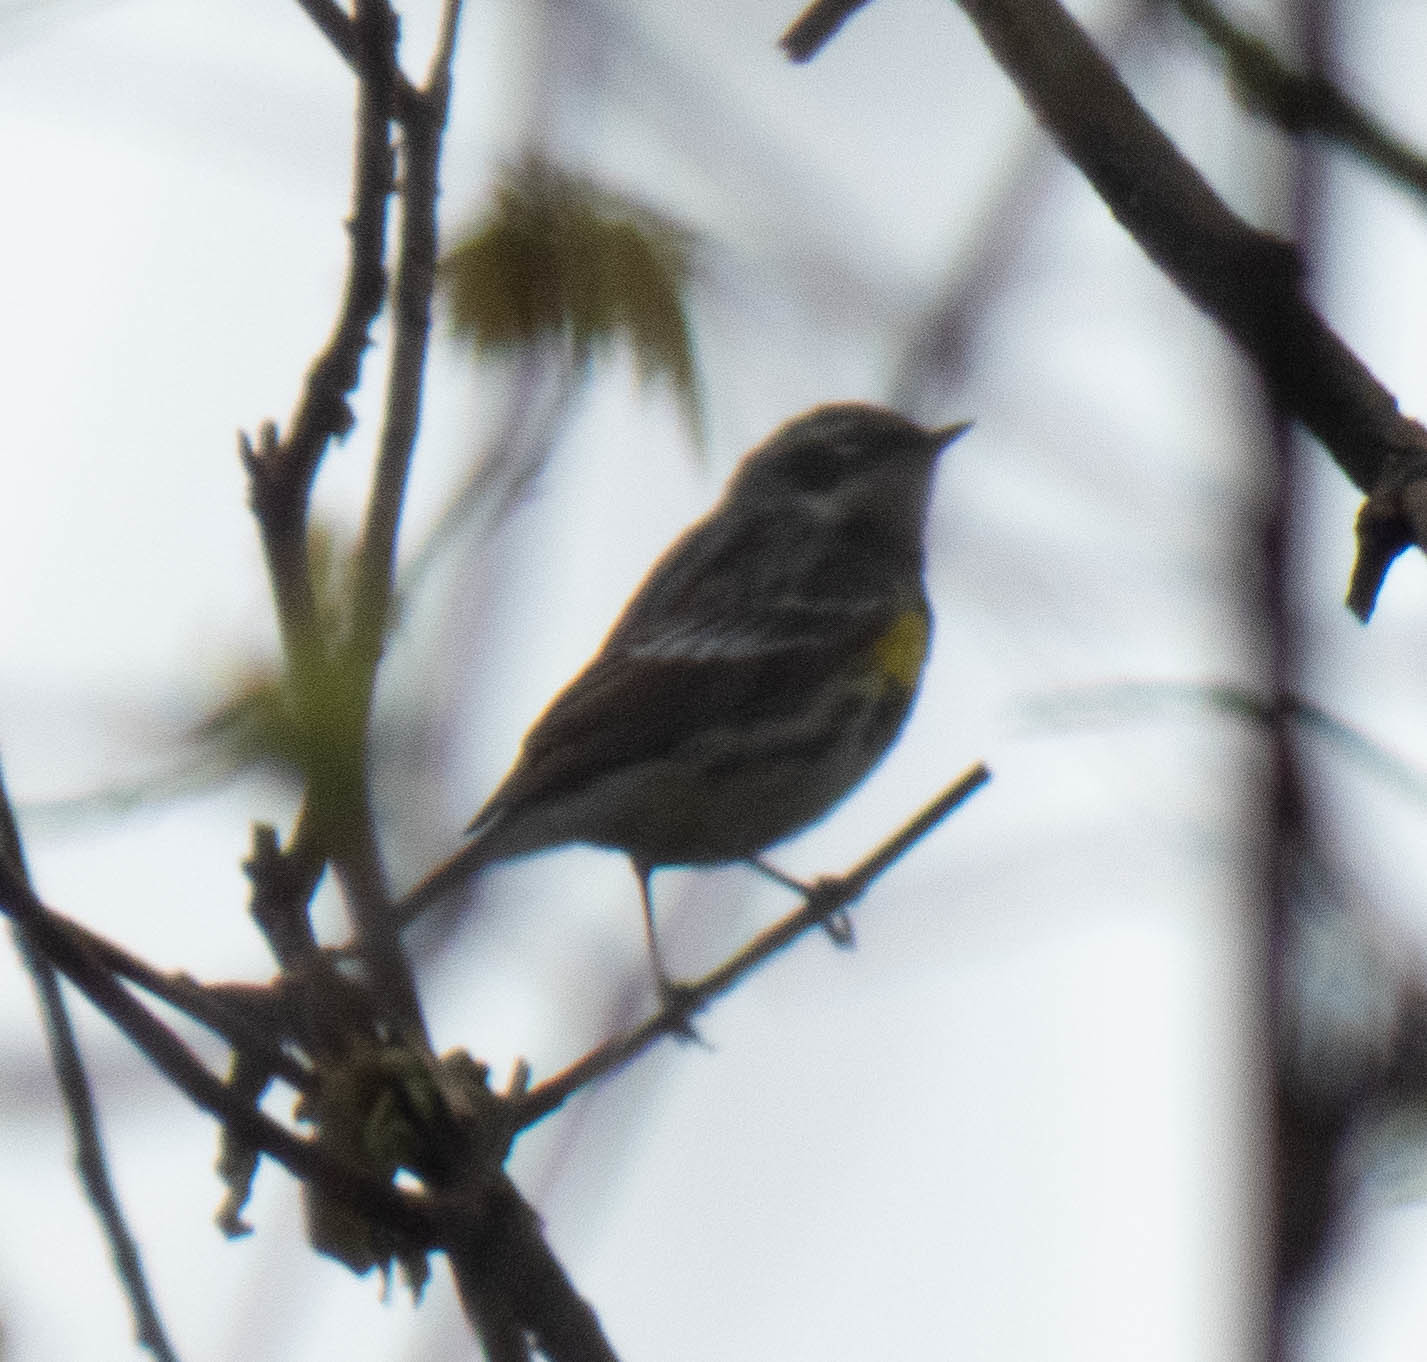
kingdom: Animalia
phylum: Chordata
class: Aves
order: Passeriformes
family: Parulidae
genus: Setophaga
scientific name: Setophaga coronata
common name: Myrtle warbler
